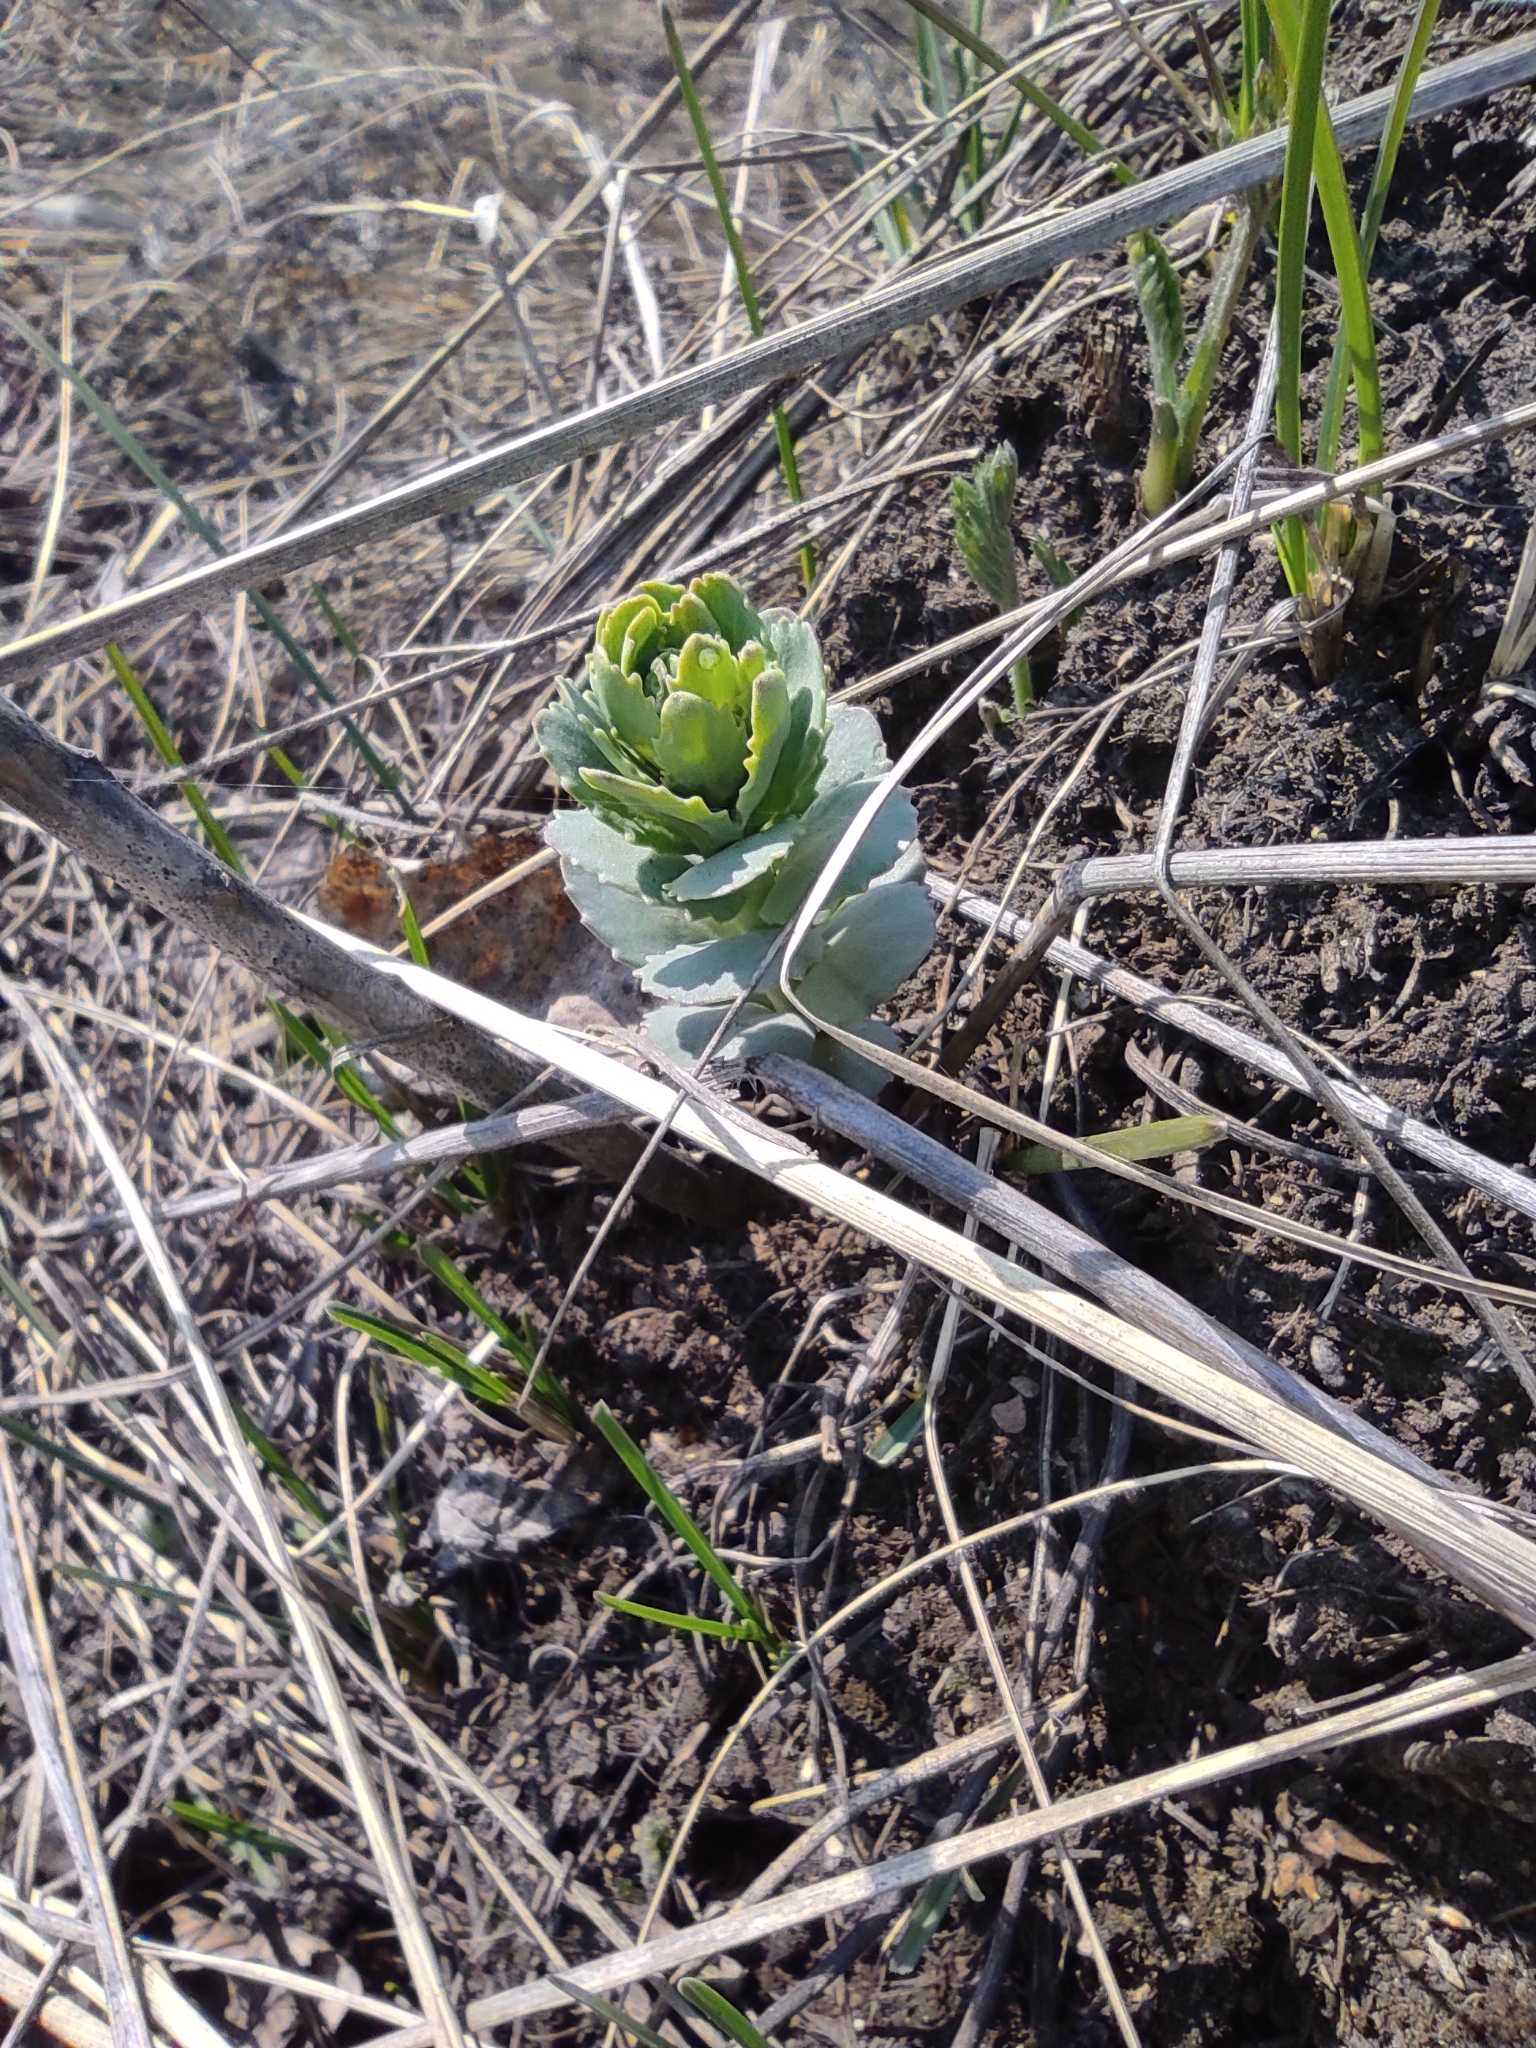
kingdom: Plantae
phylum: Tracheophyta
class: Magnoliopsida
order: Saxifragales
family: Crassulaceae
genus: Hylotelephium
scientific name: Hylotelephium telephium
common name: Live-forever
